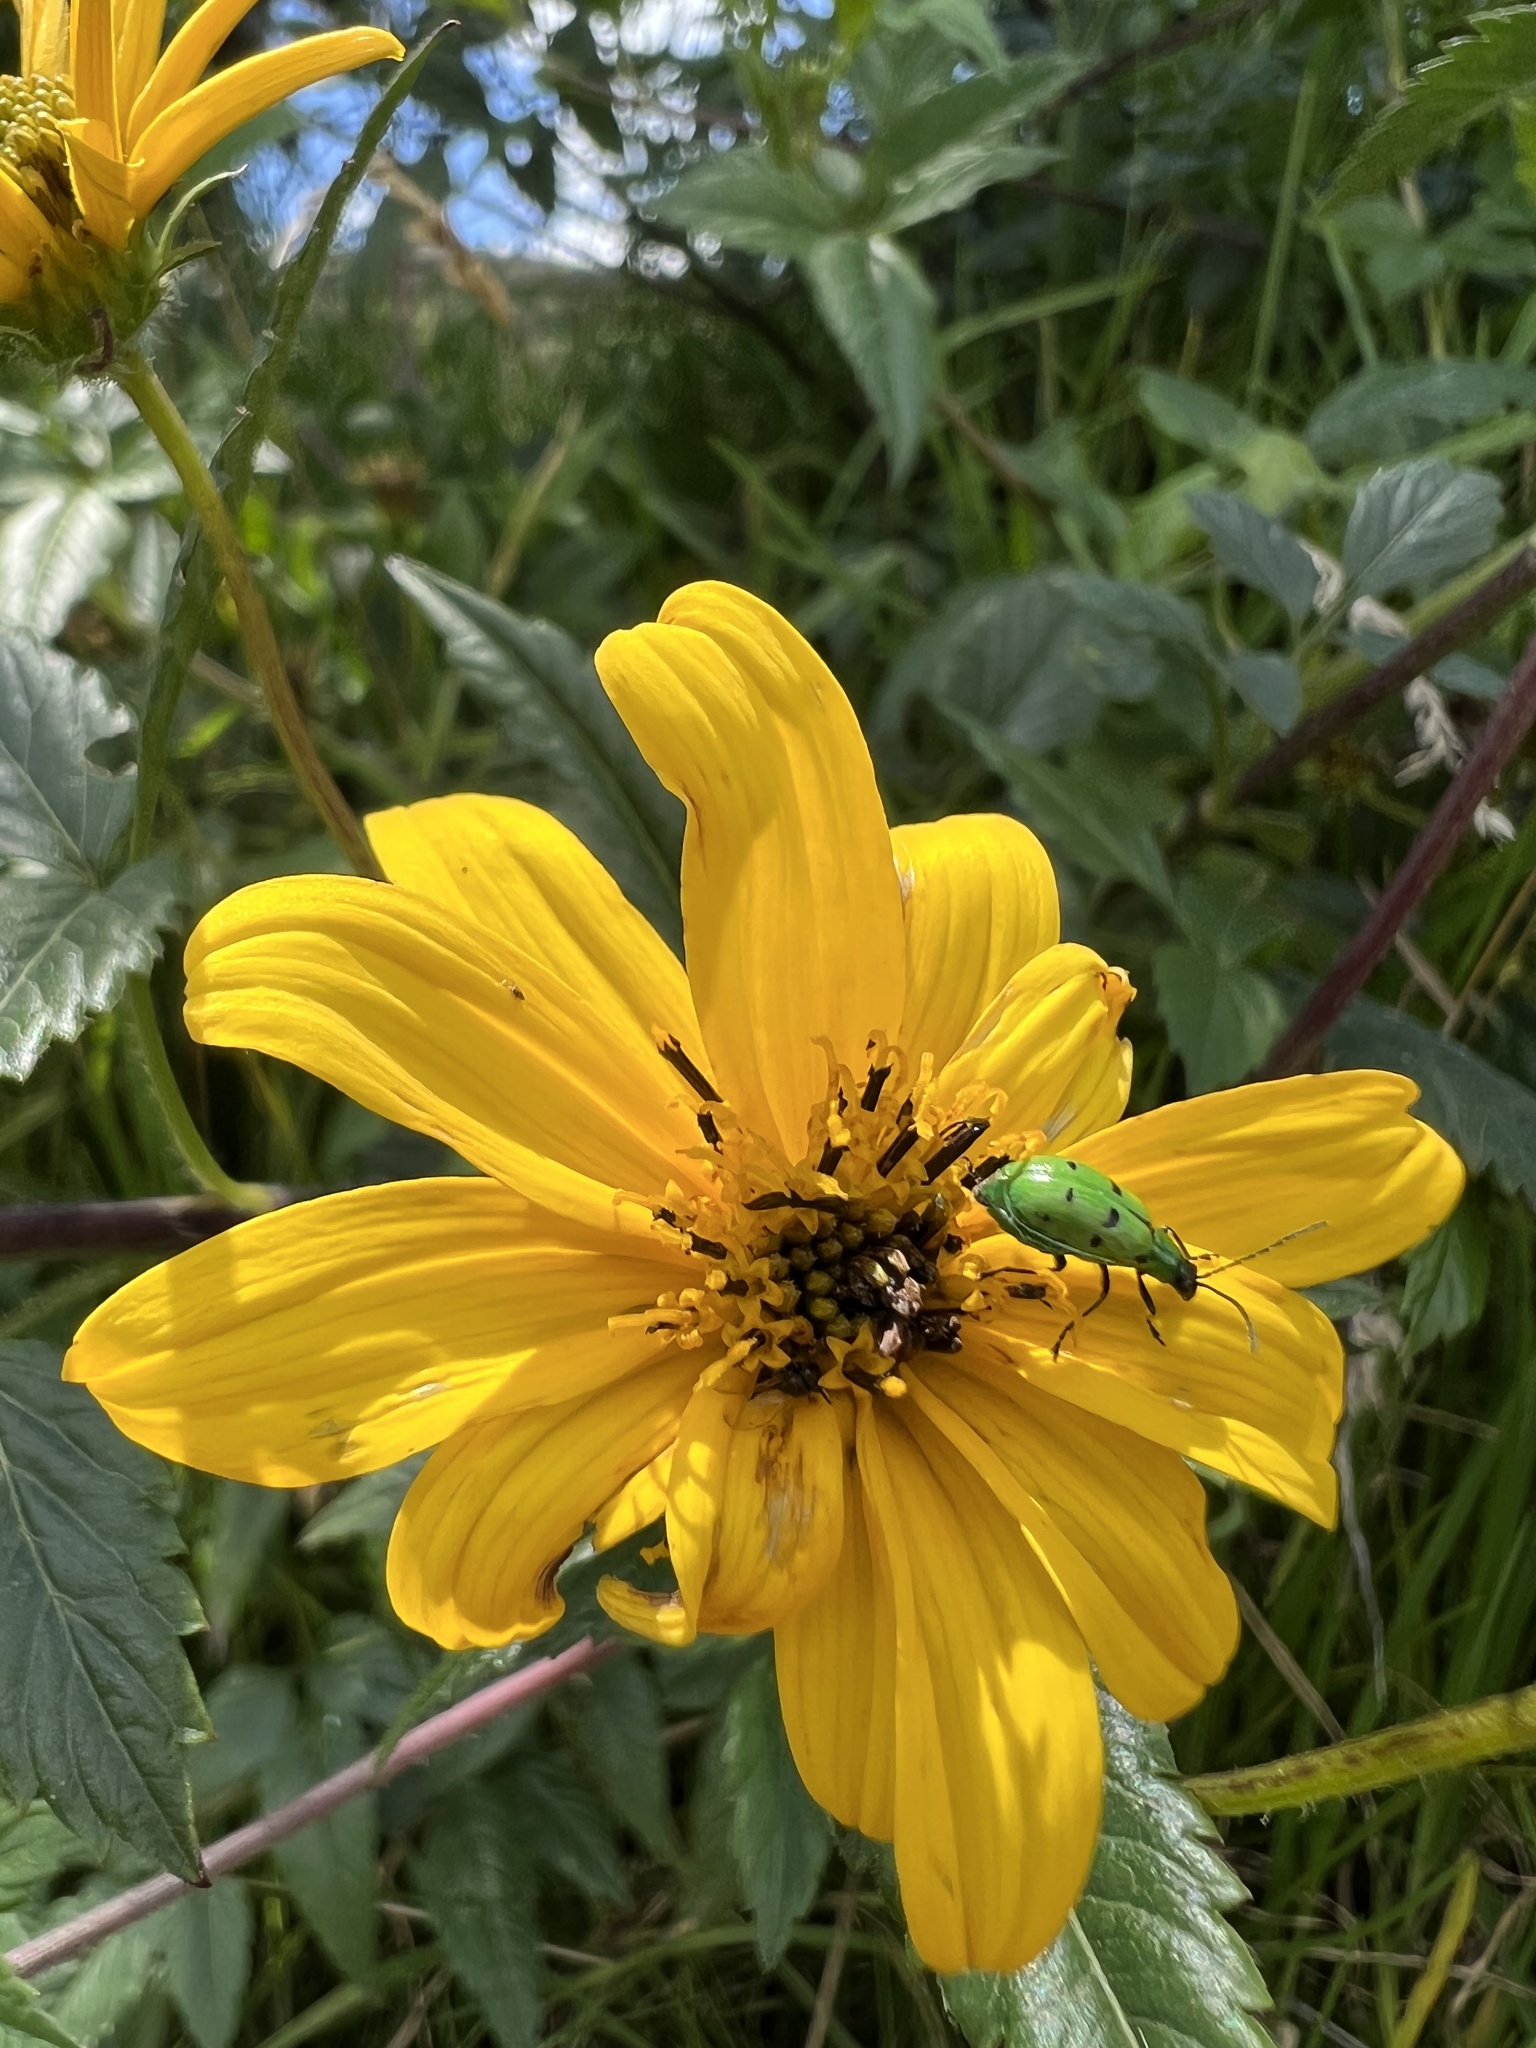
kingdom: Animalia
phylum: Arthropoda
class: Insecta
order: Coleoptera
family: Chrysomelidae
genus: Diabrotica
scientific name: Diabrotica decempunctata
